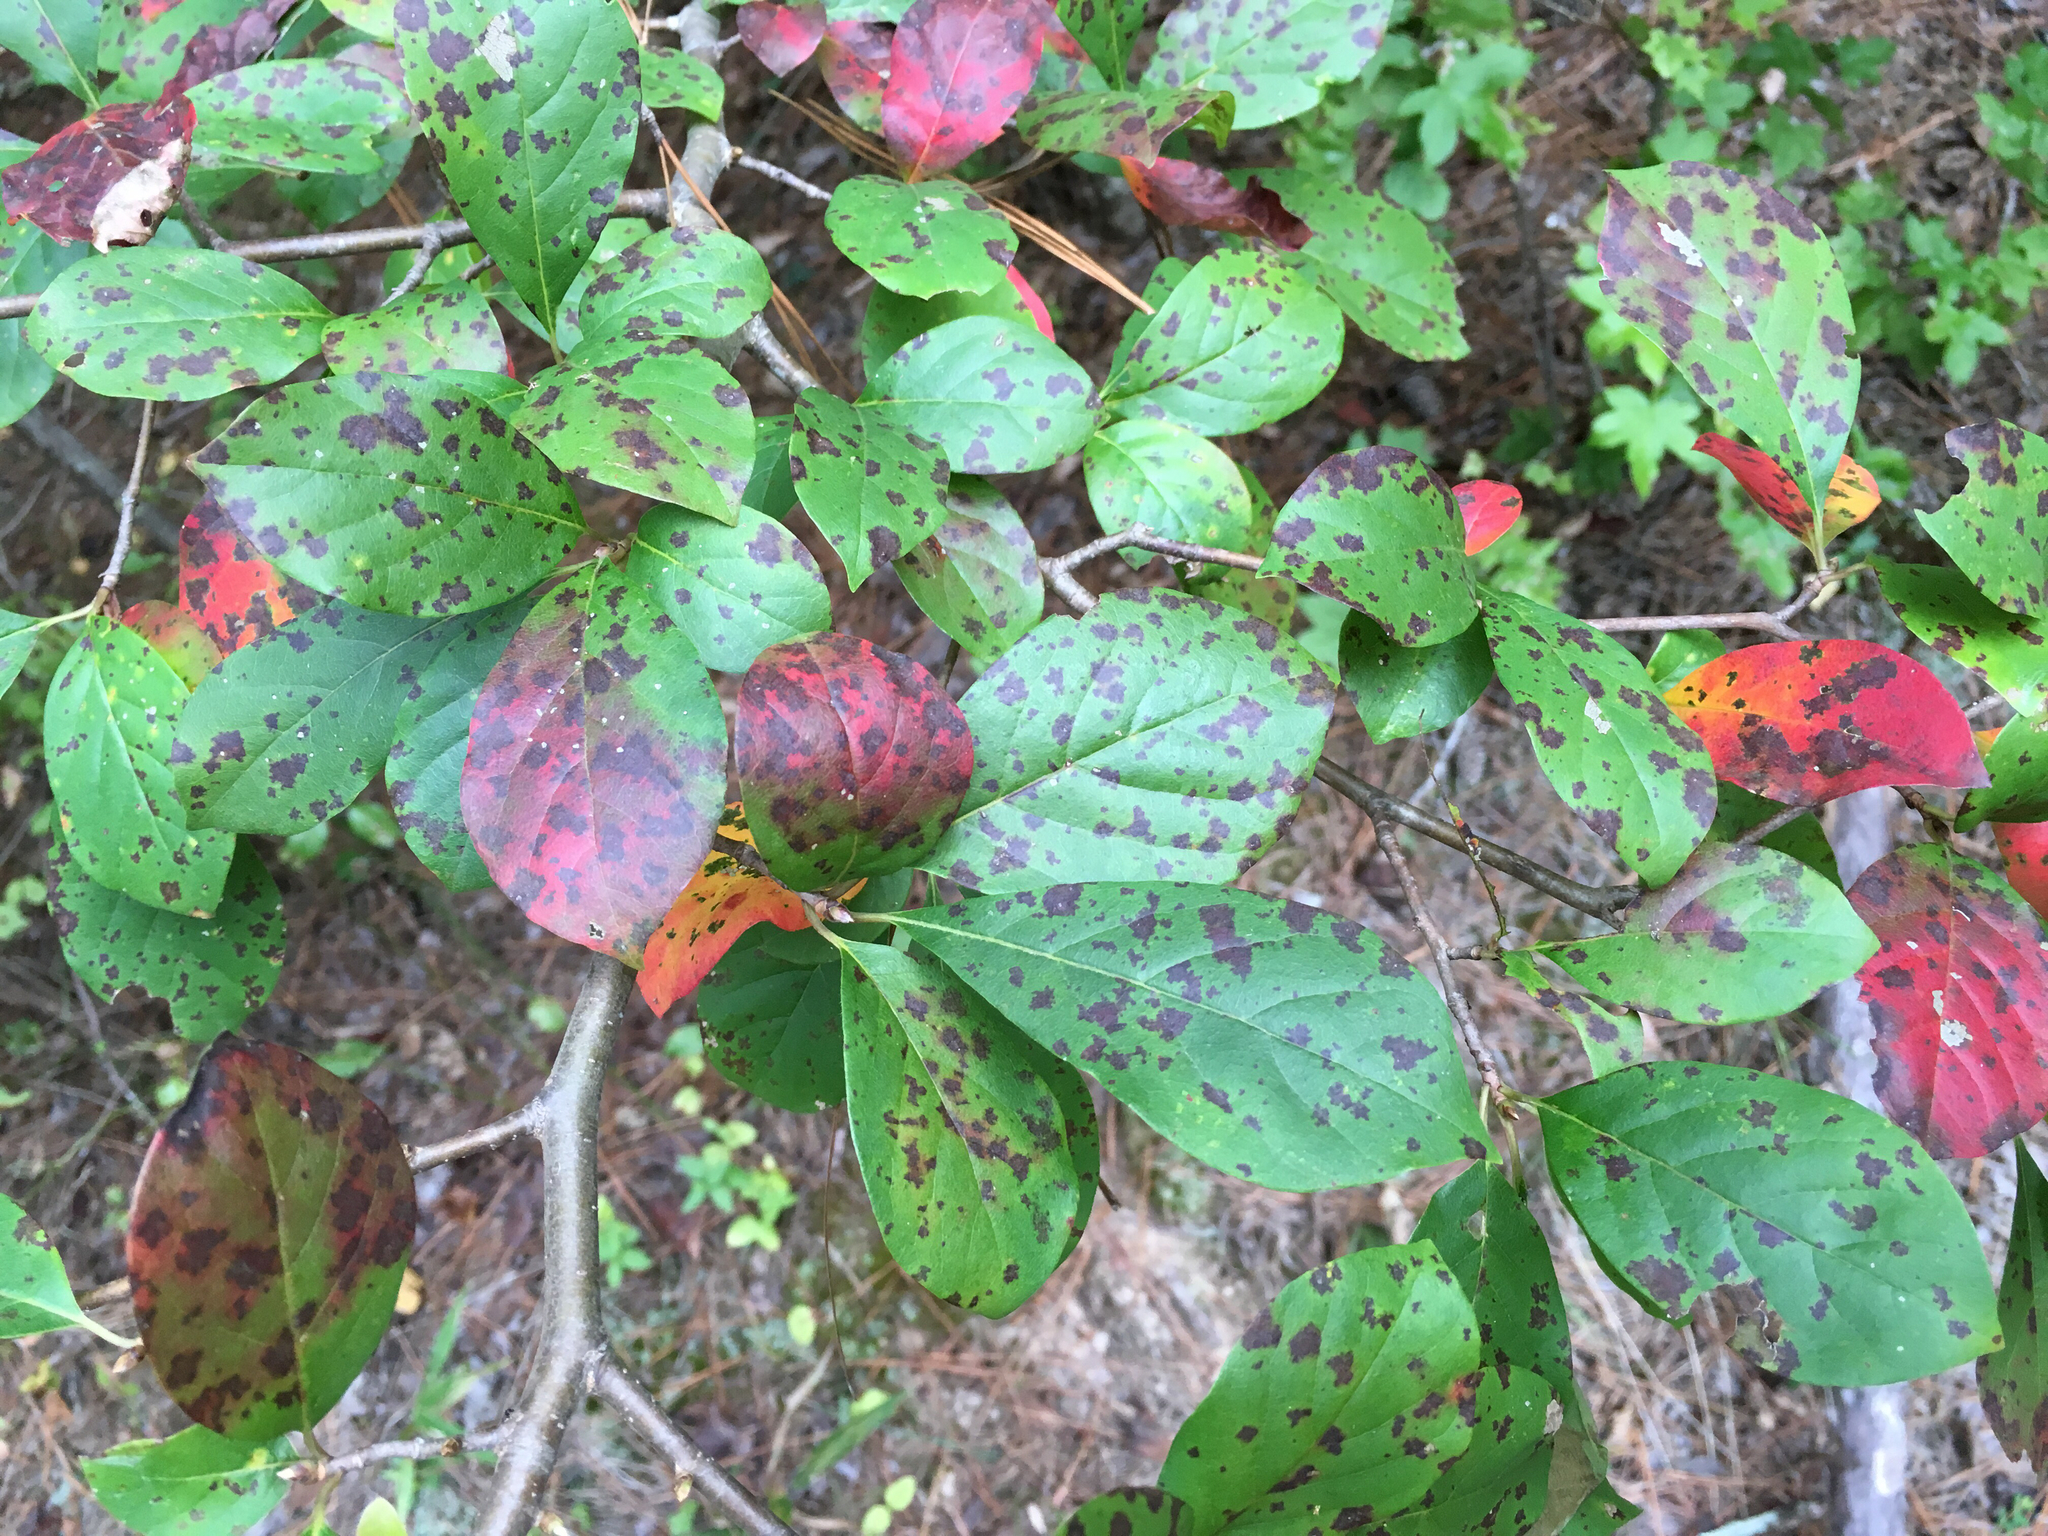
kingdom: Plantae
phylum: Tracheophyta
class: Magnoliopsida
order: Cornales
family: Nyssaceae
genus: Nyssa
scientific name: Nyssa sylvatica
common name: Black tupelo
